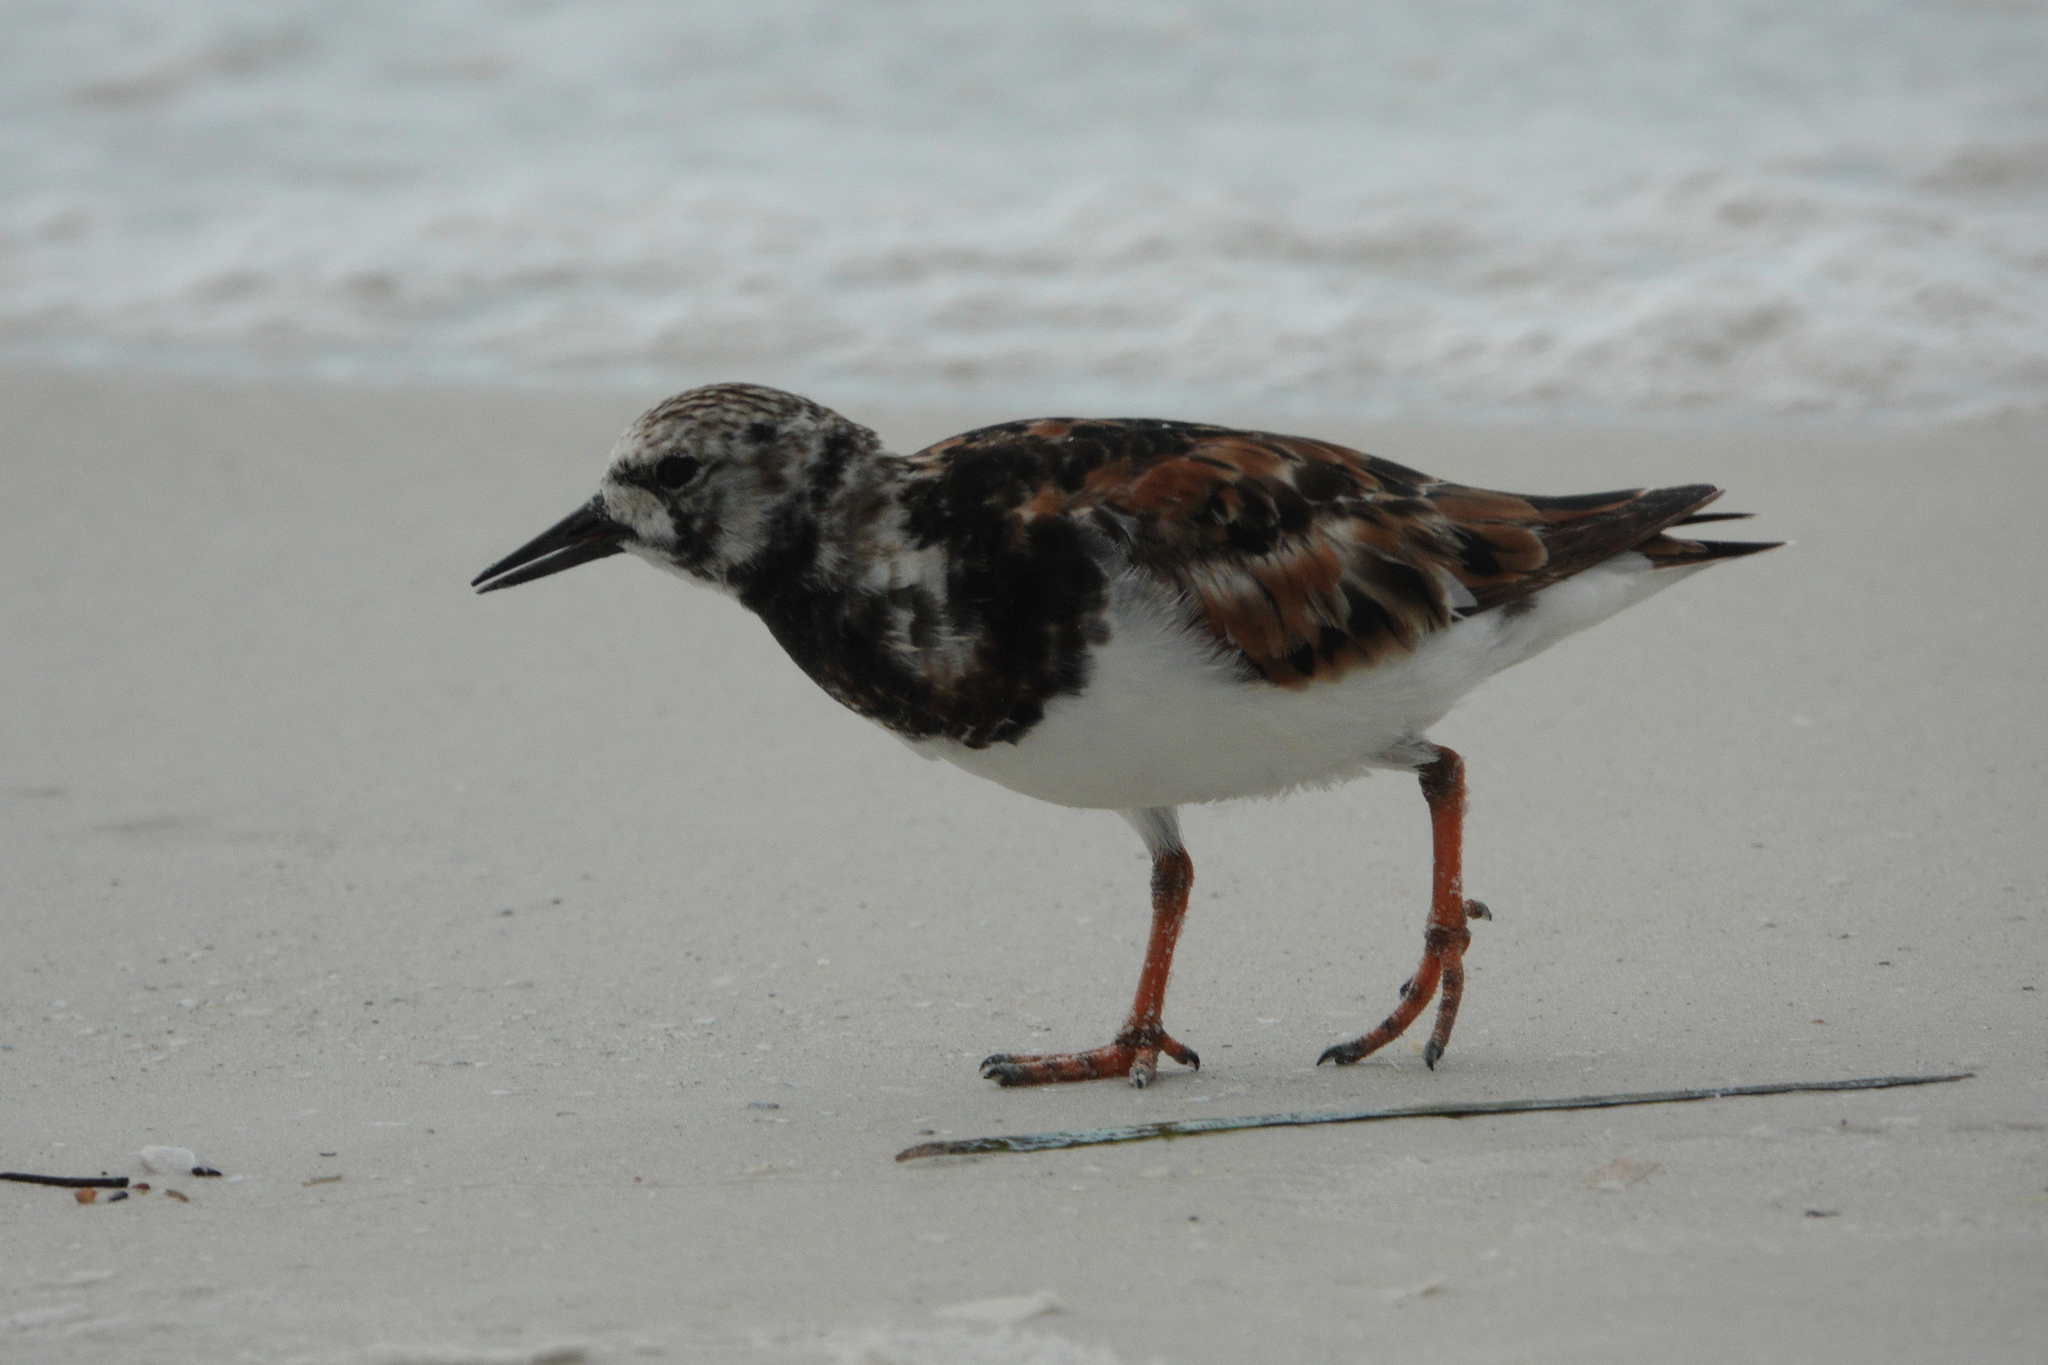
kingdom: Animalia
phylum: Chordata
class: Aves
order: Charadriiformes
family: Scolopacidae
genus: Arenaria
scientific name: Arenaria interpres
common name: Ruddy turnstone
